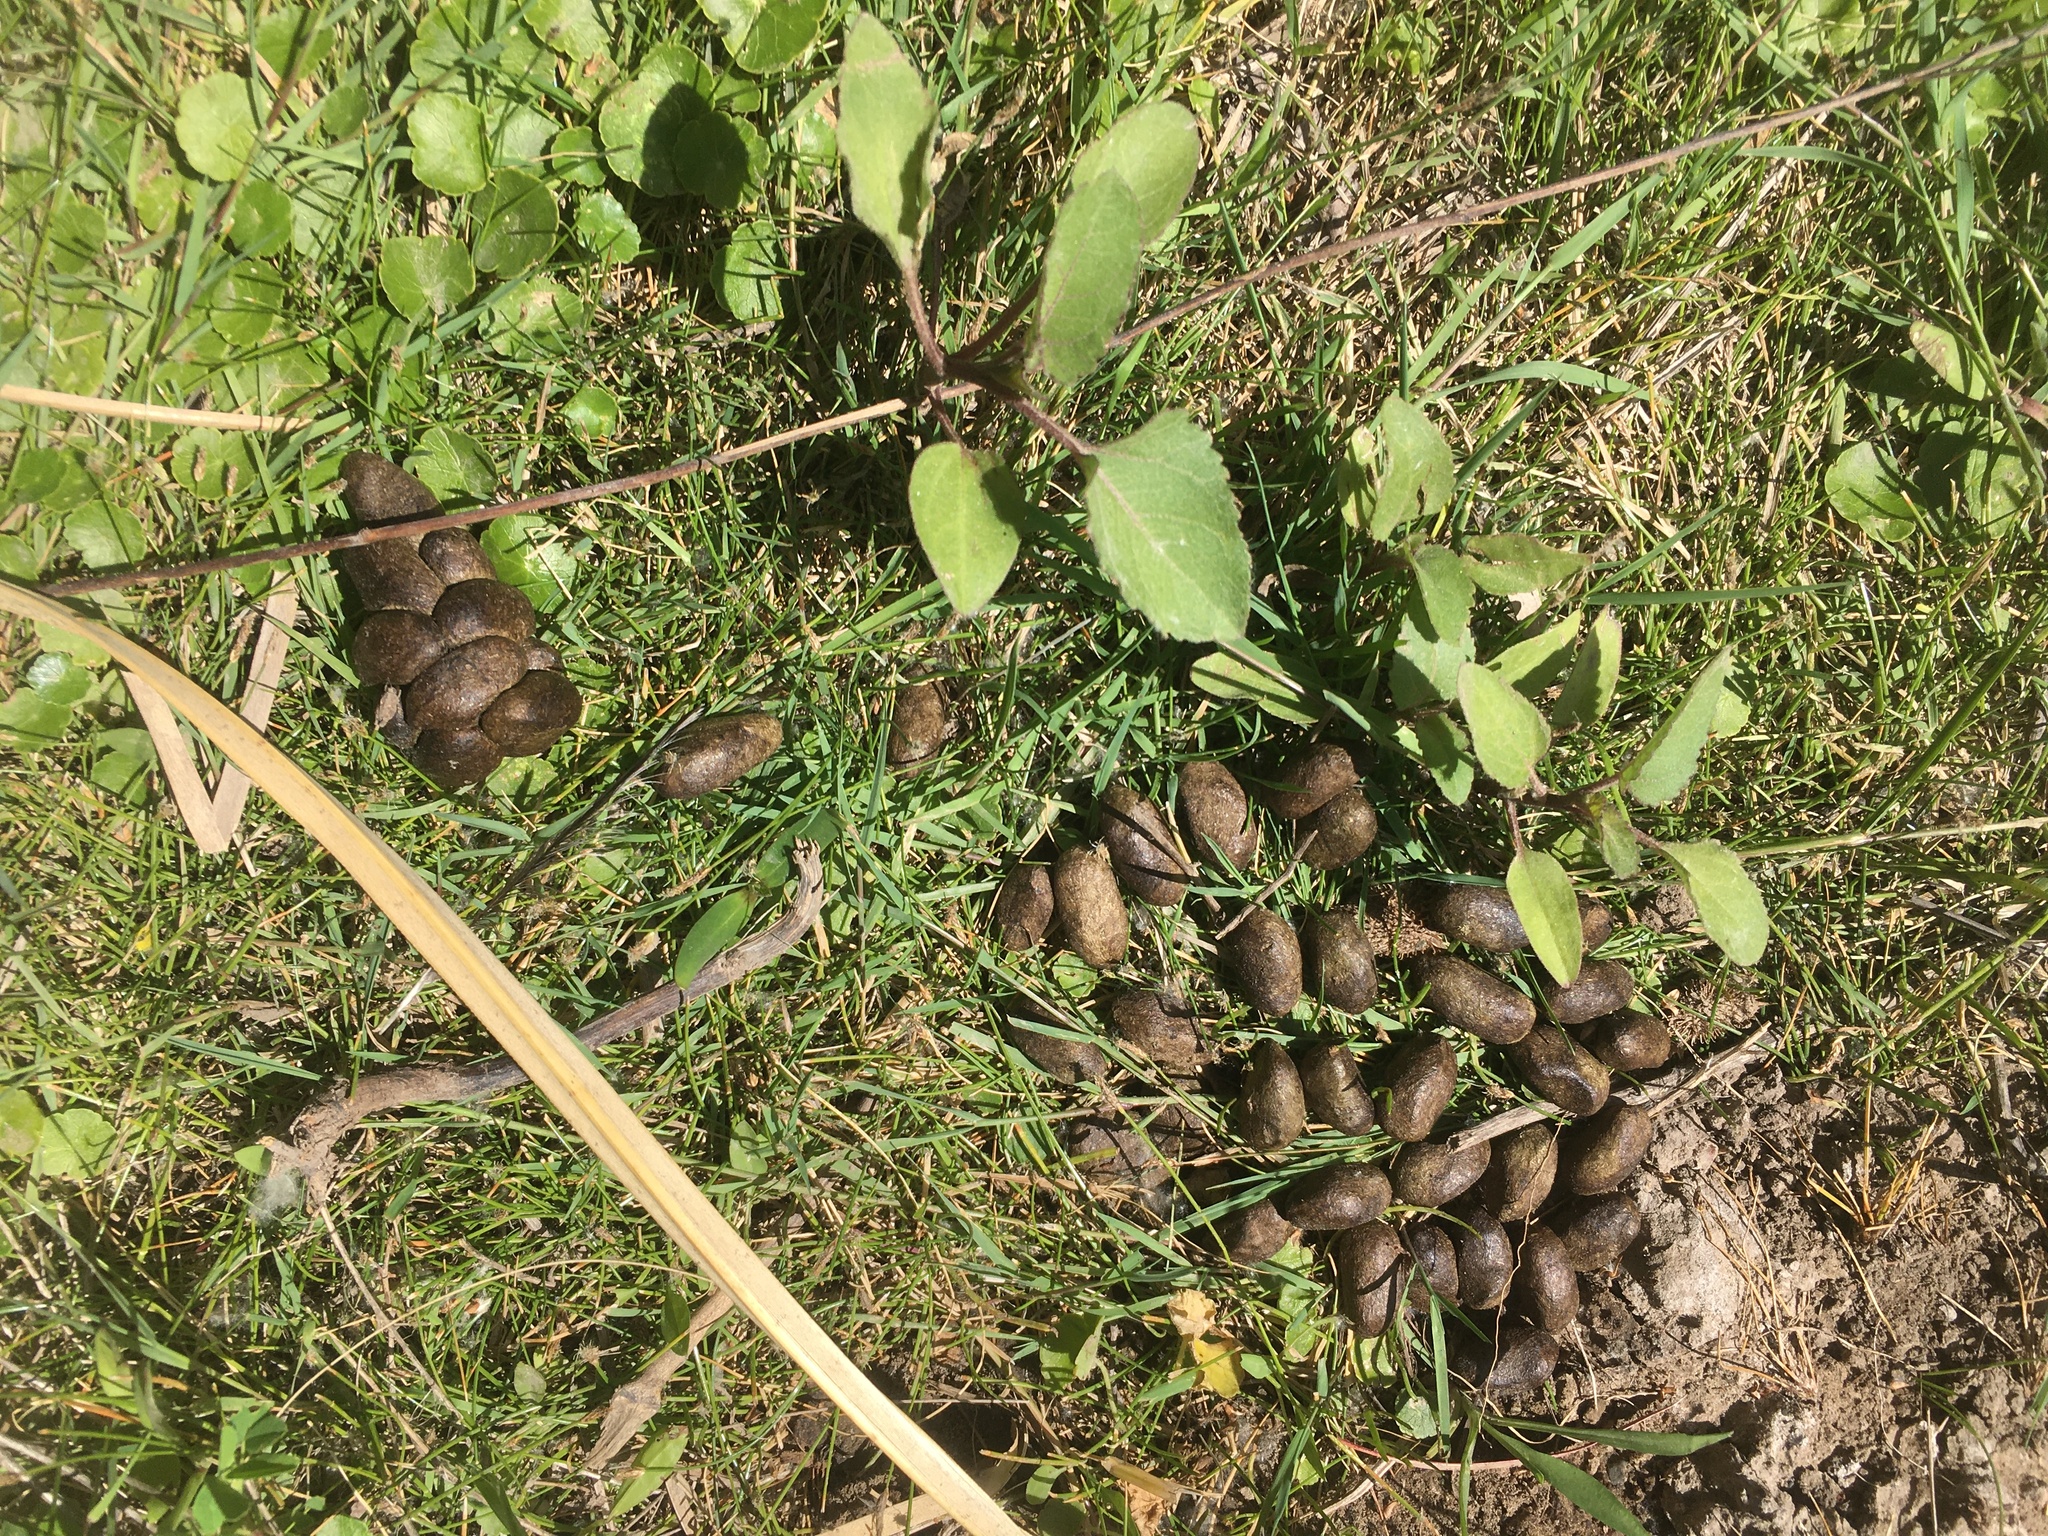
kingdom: Animalia
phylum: Chordata
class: Mammalia
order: Rodentia
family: Caviidae
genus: Hydrochoerus
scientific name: Hydrochoerus hydrochaeris
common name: Capybara
